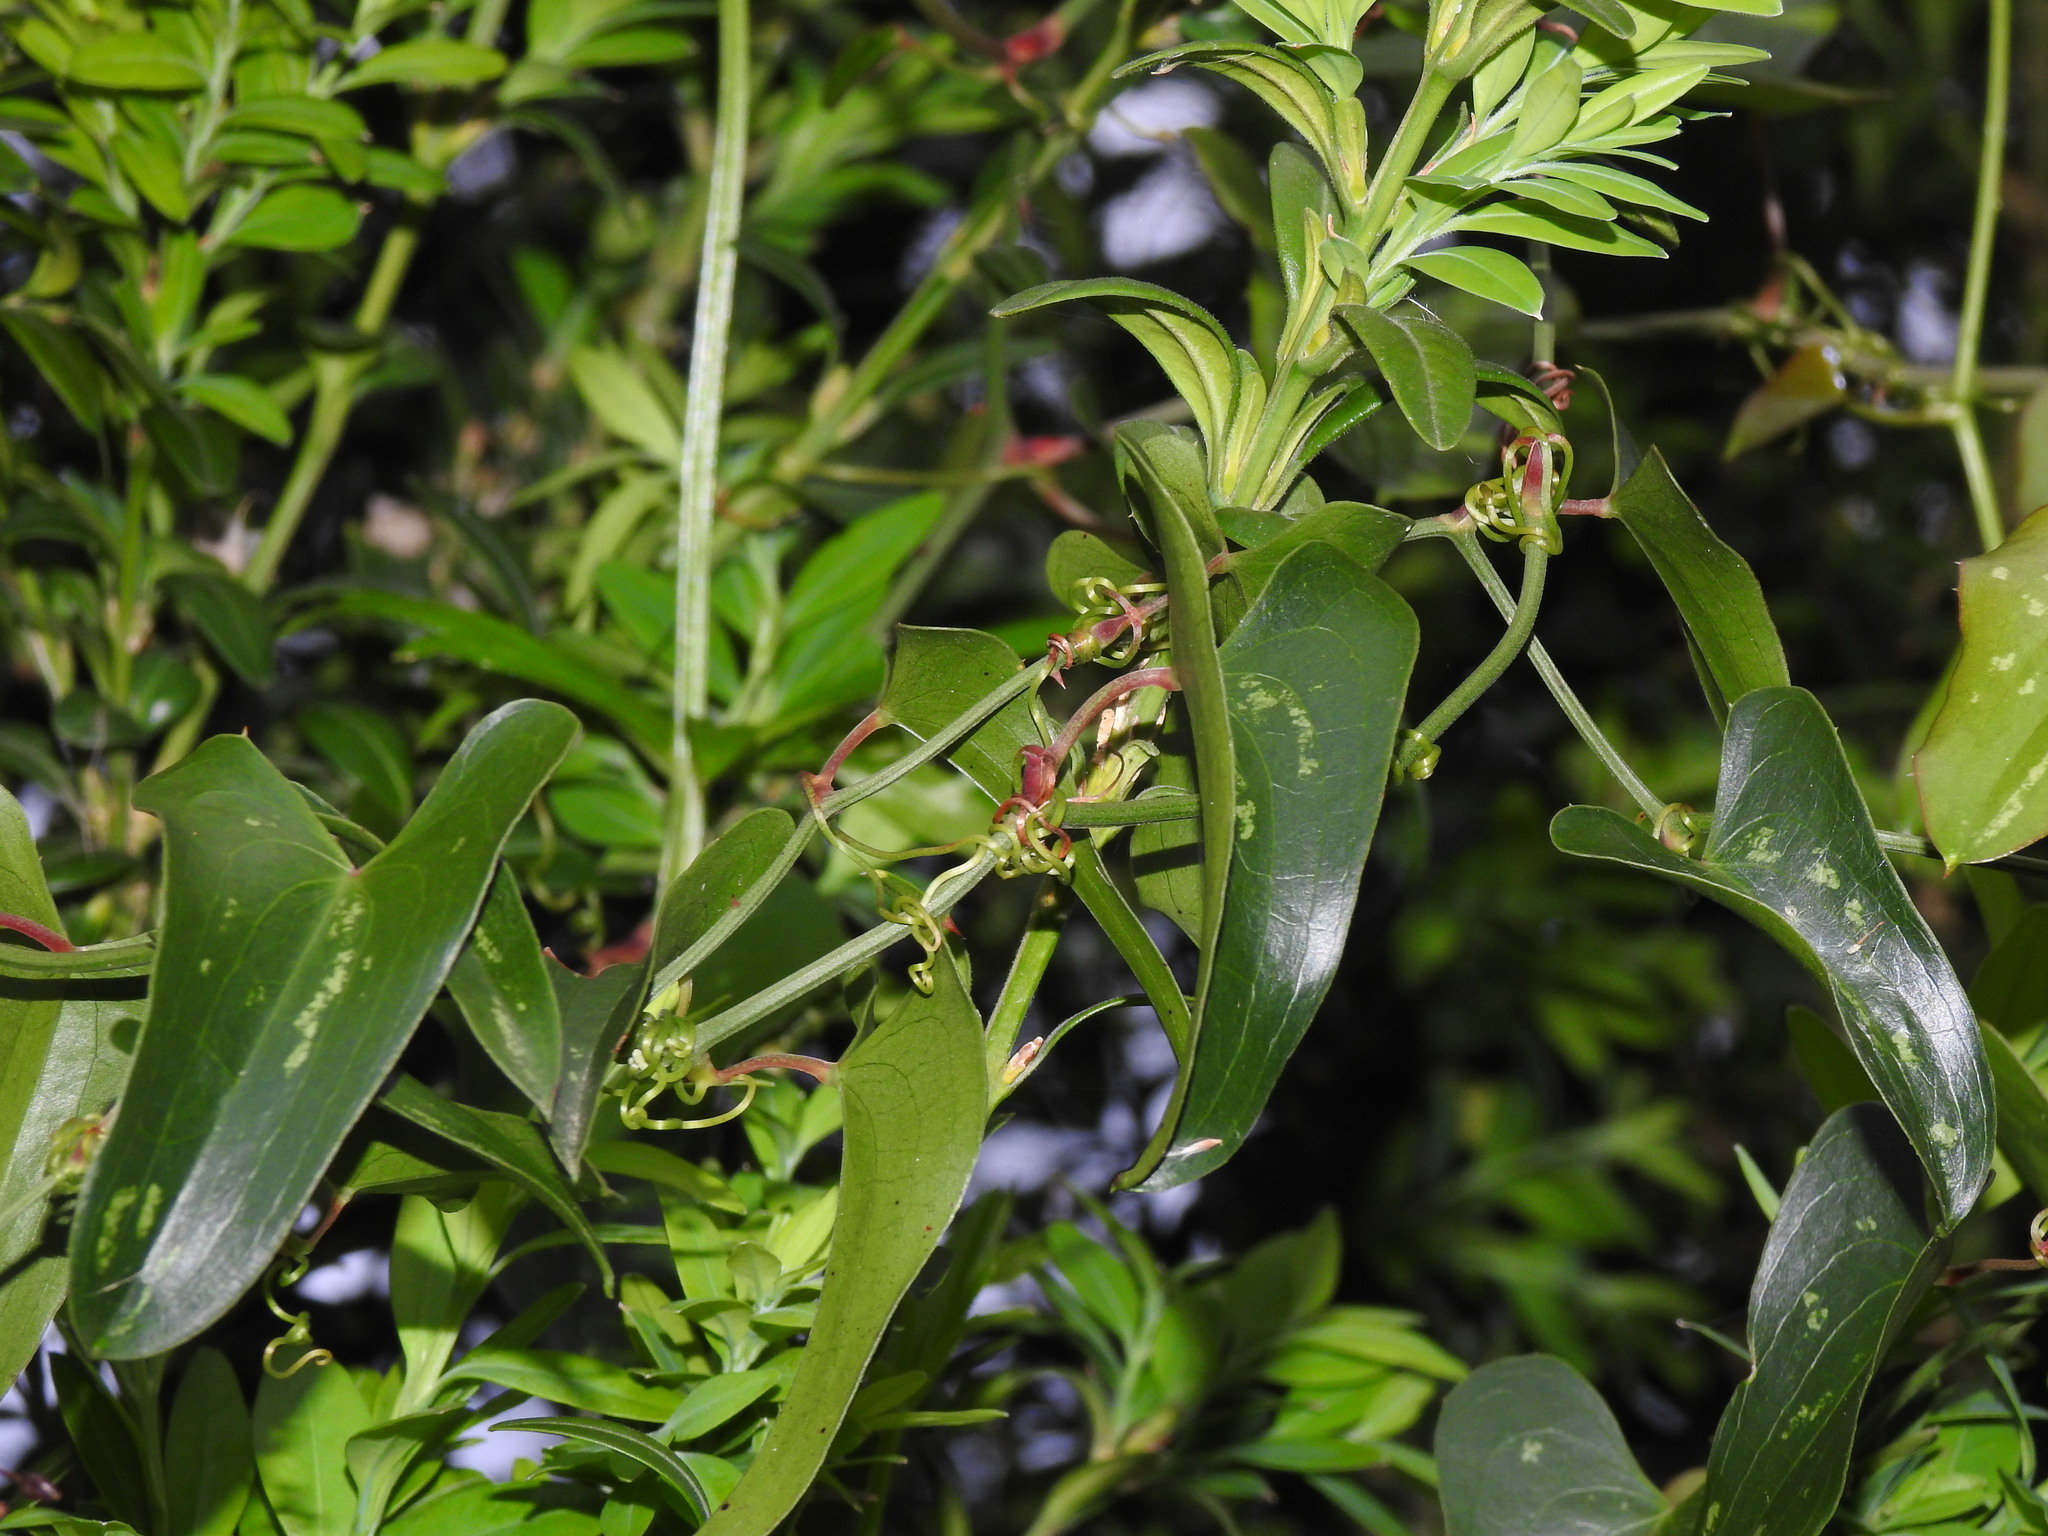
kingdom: Plantae
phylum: Tracheophyta
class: Liliopsida
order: Liliales
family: Smilacaceae
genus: Smilax
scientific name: Smilax aspera
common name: Common smilax
